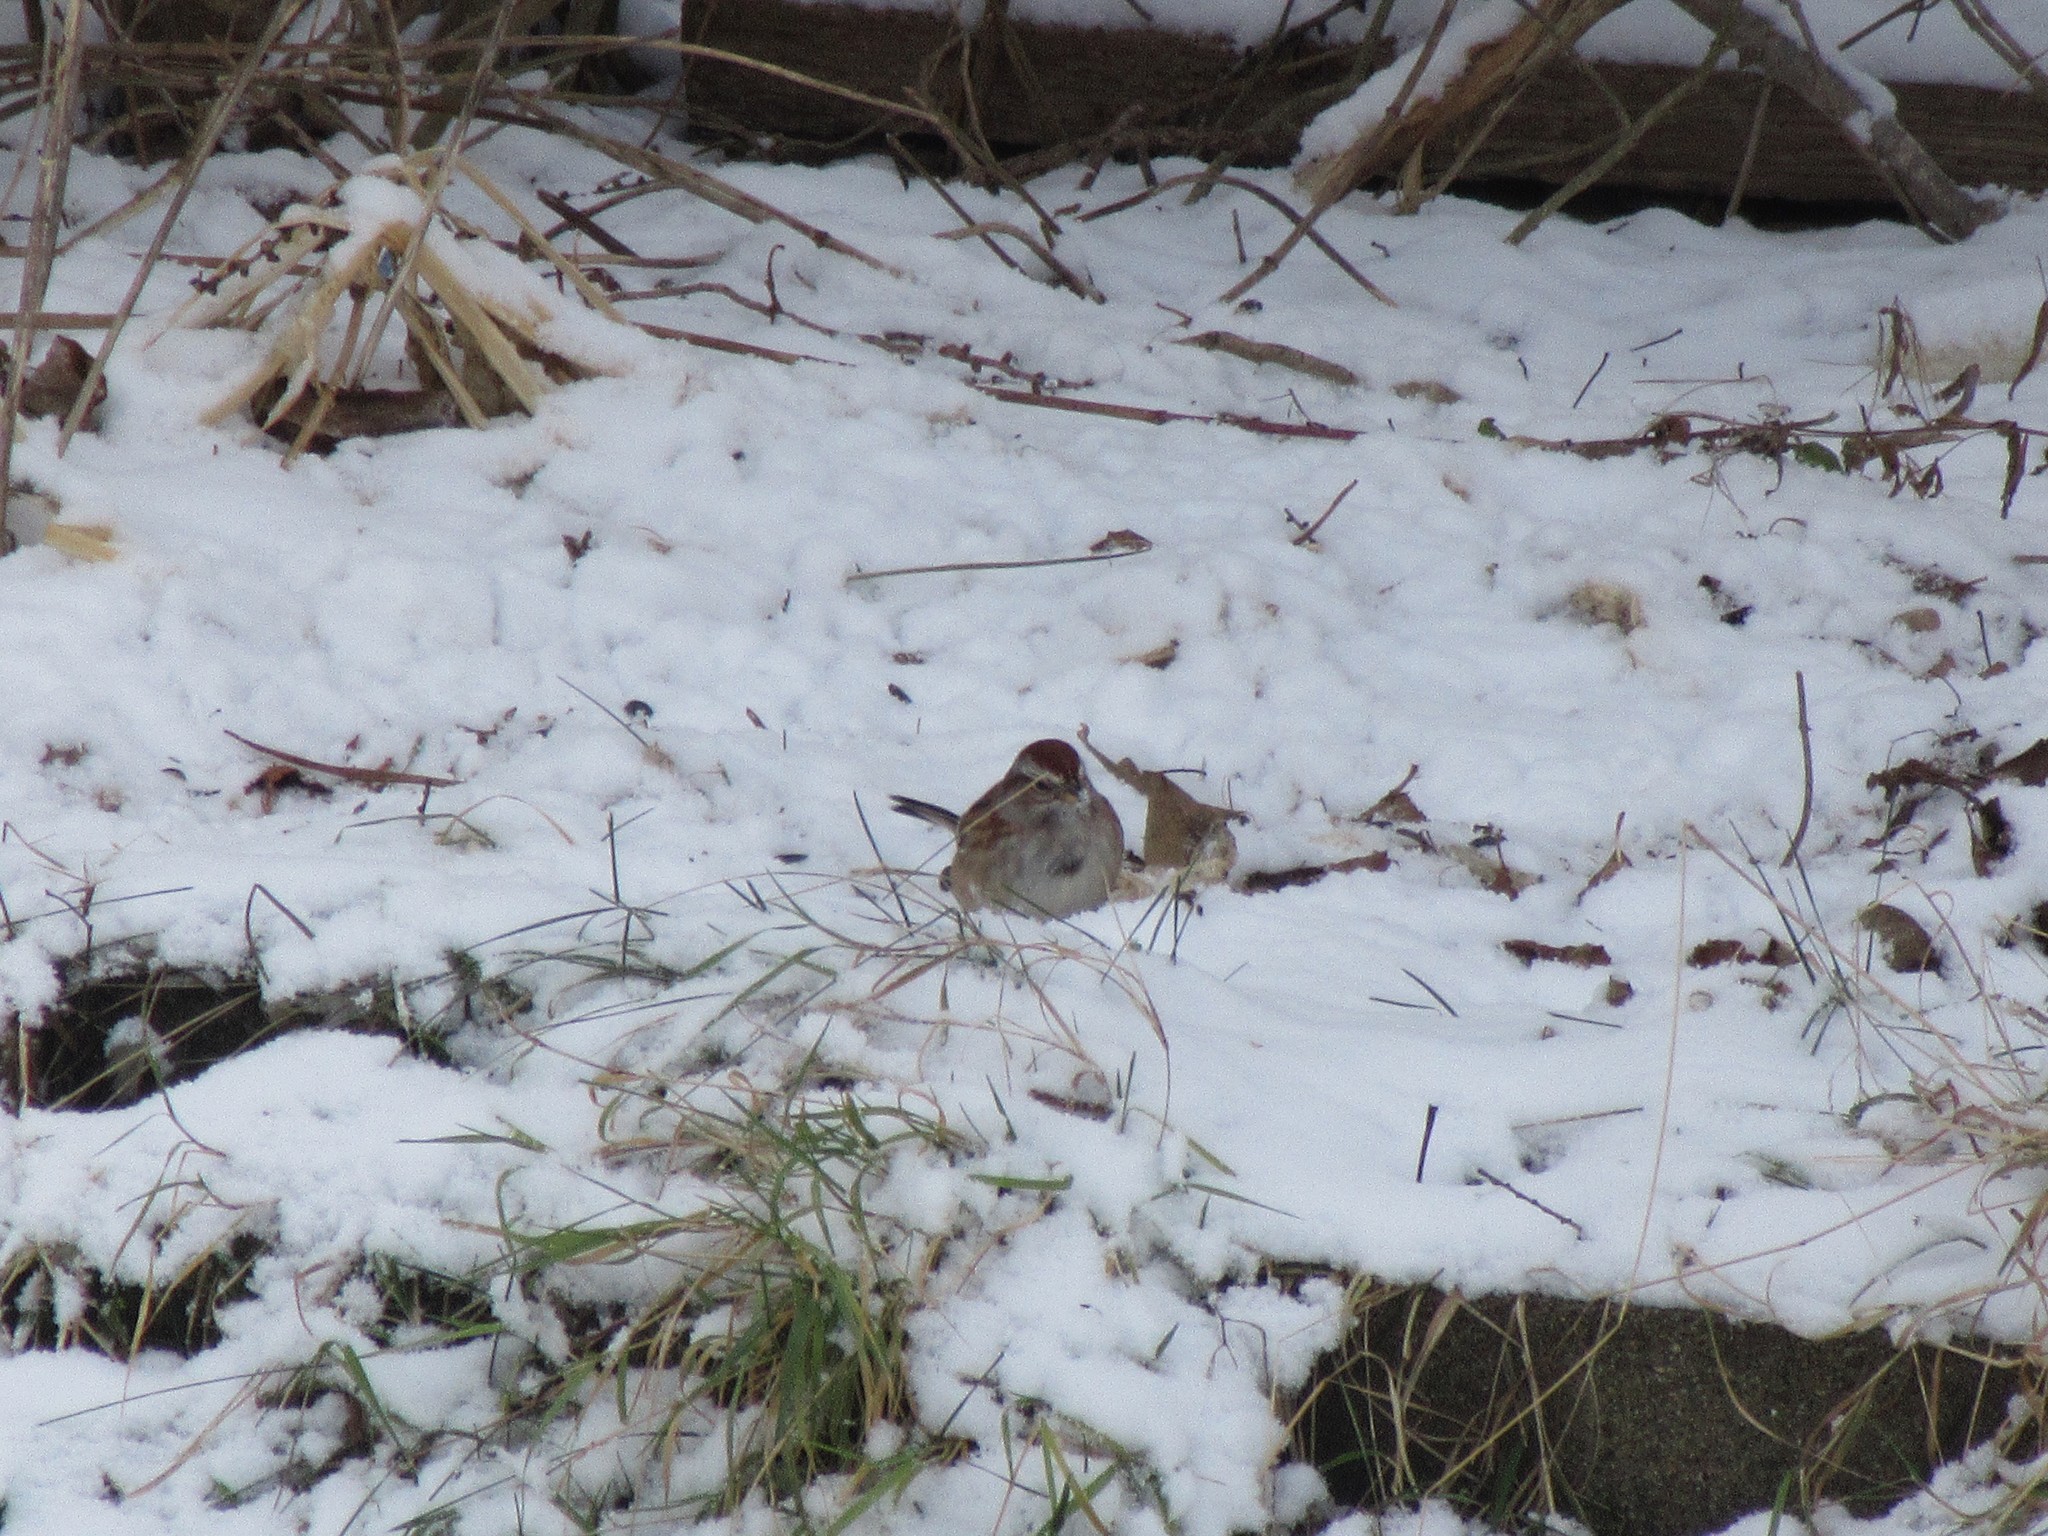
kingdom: Animalia
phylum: Chordata
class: Aves
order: Passeriformes
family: Passerellidae
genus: Spizelloides
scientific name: Spizelloides arborea
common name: American tree sparrow
